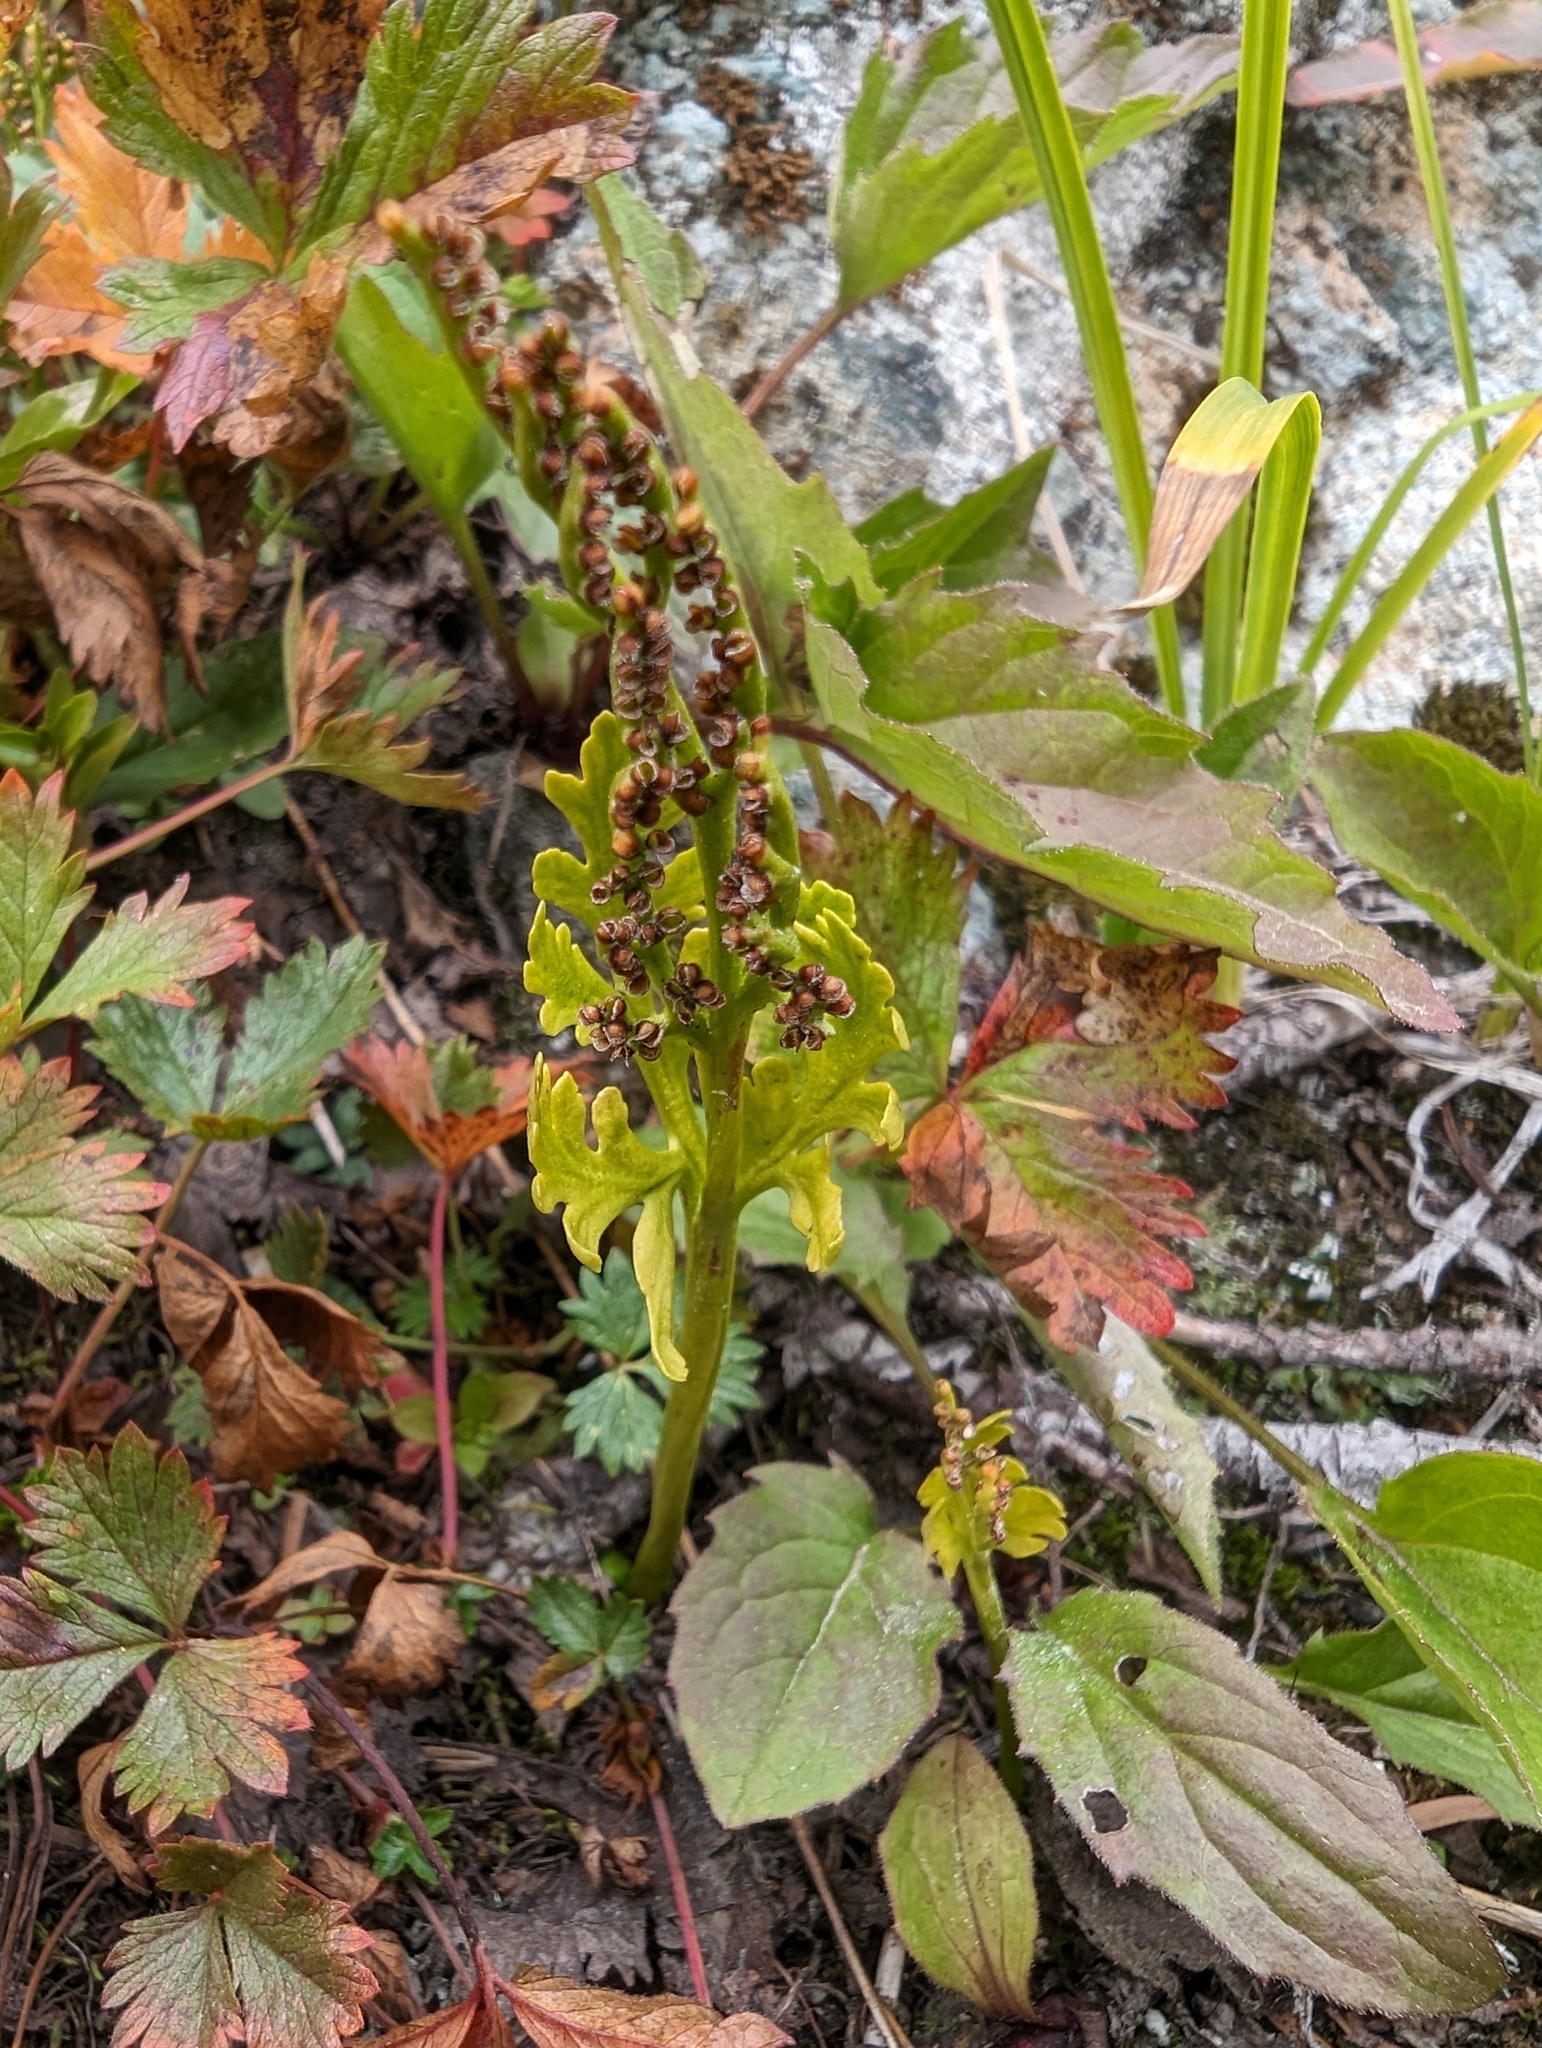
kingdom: Plantae
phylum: Tracheophyta
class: Polypodiopsida
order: Ophioglossales
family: Ophioglossaceae
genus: Botrychium
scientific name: Botrychium lanceolatum
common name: Lance-leaved moonwort
